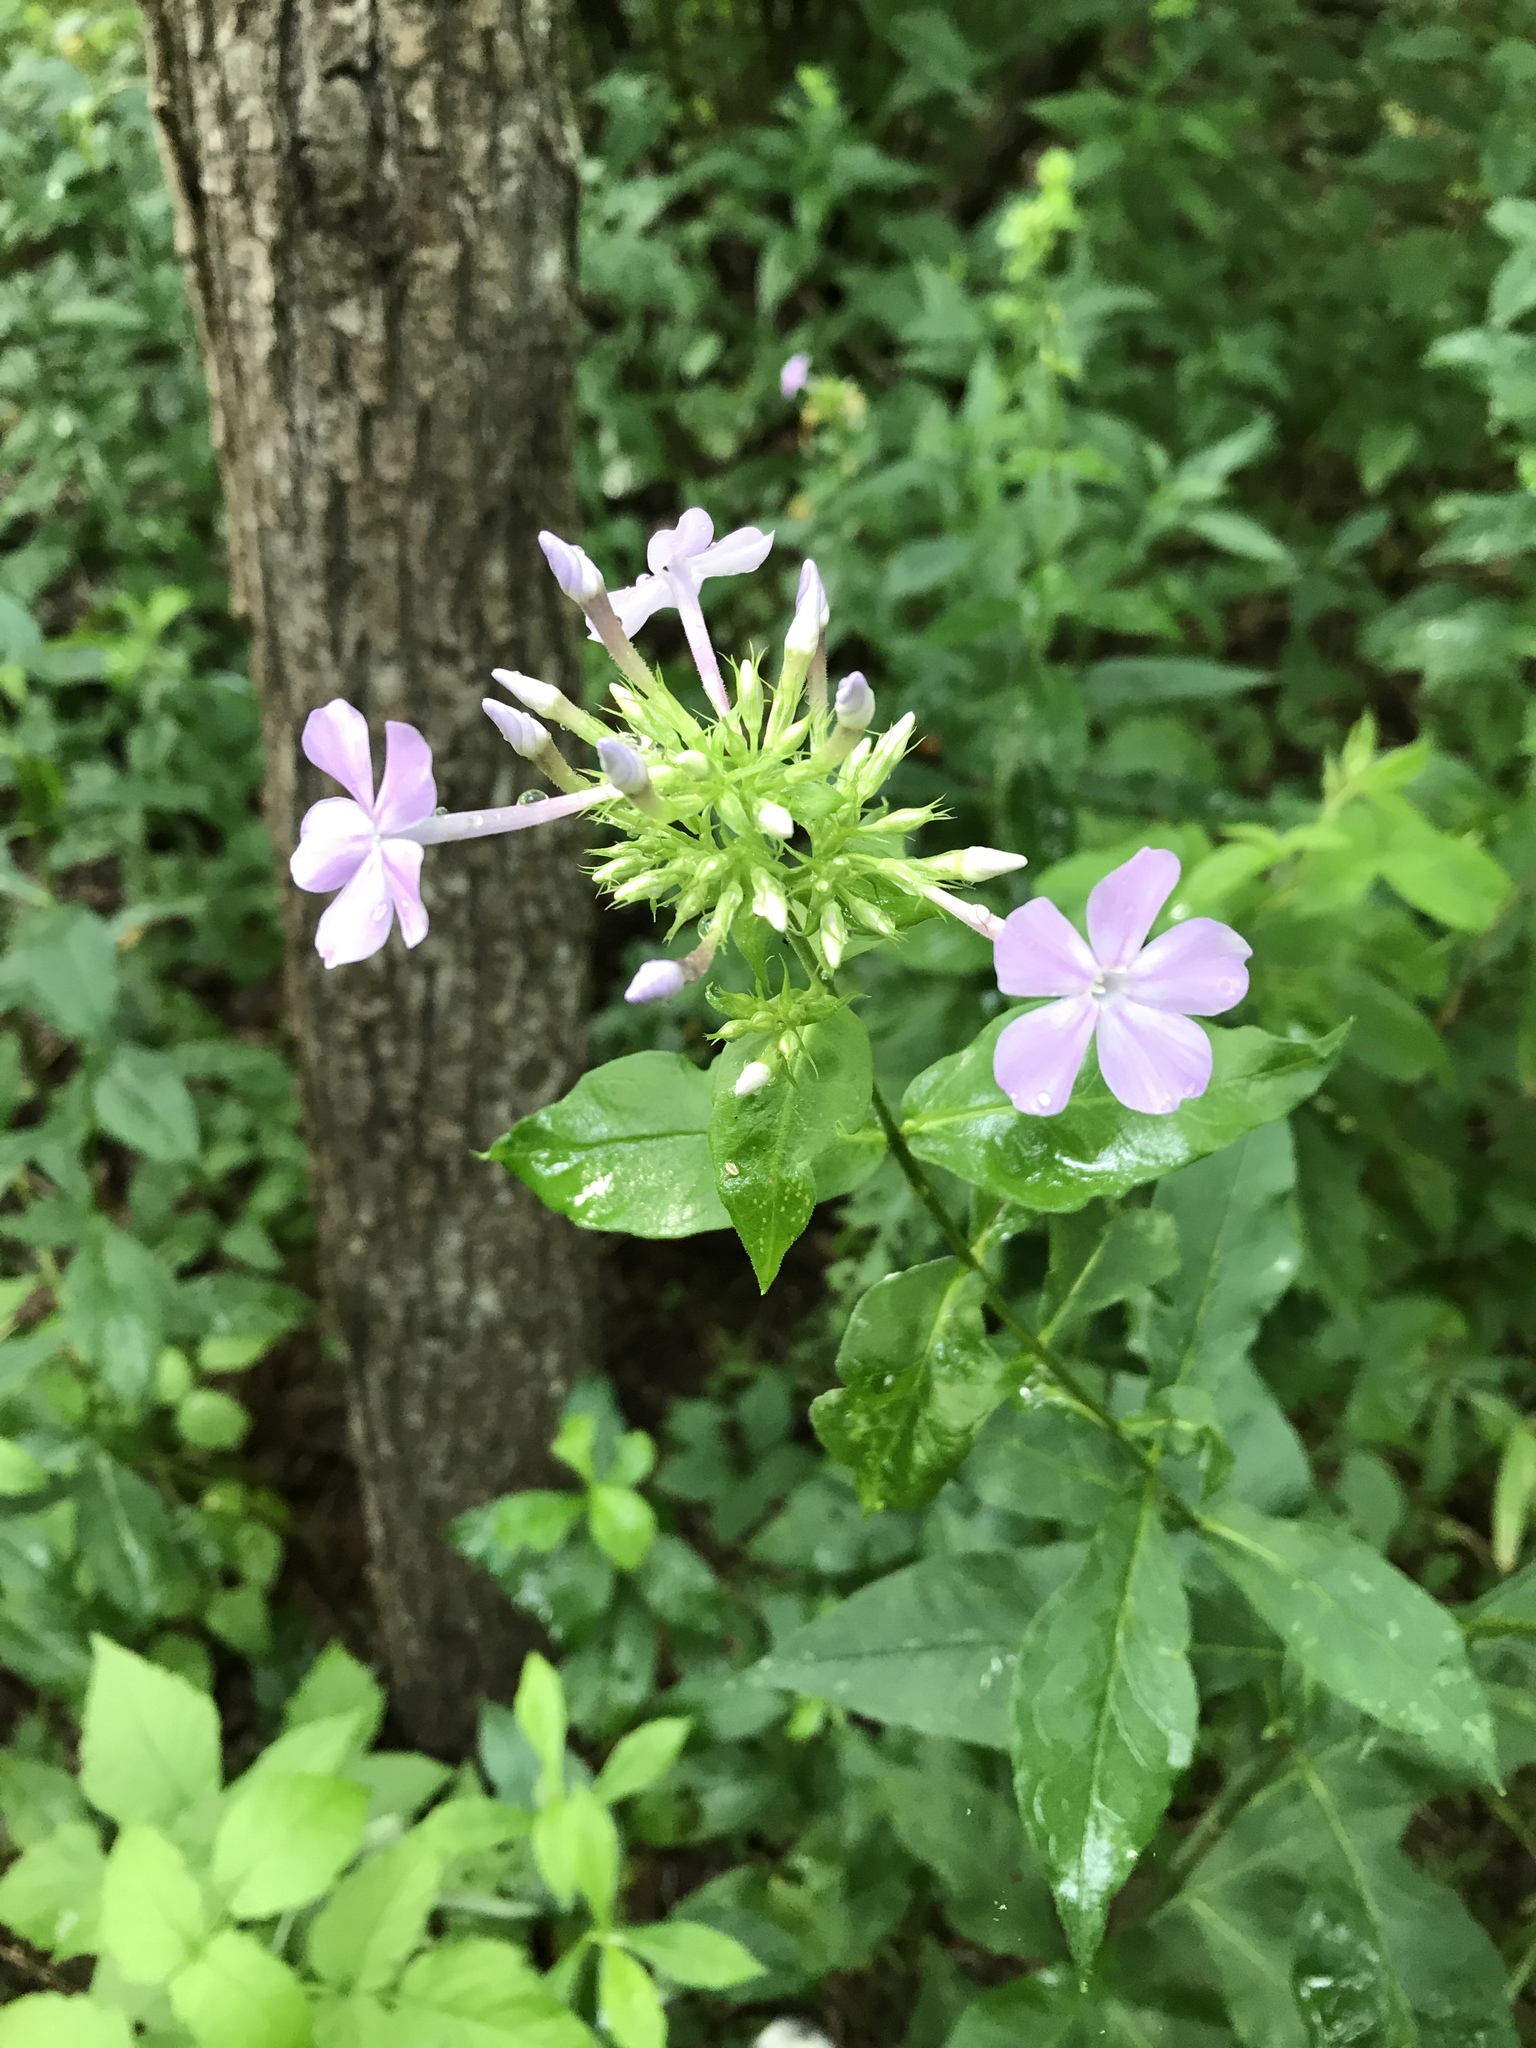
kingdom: Plantae
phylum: Tracheophyta
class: Magnoliopsida
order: Ericales
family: Polemoniaceae
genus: Phlox
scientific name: Phlox paniculata
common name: Fall phlox
